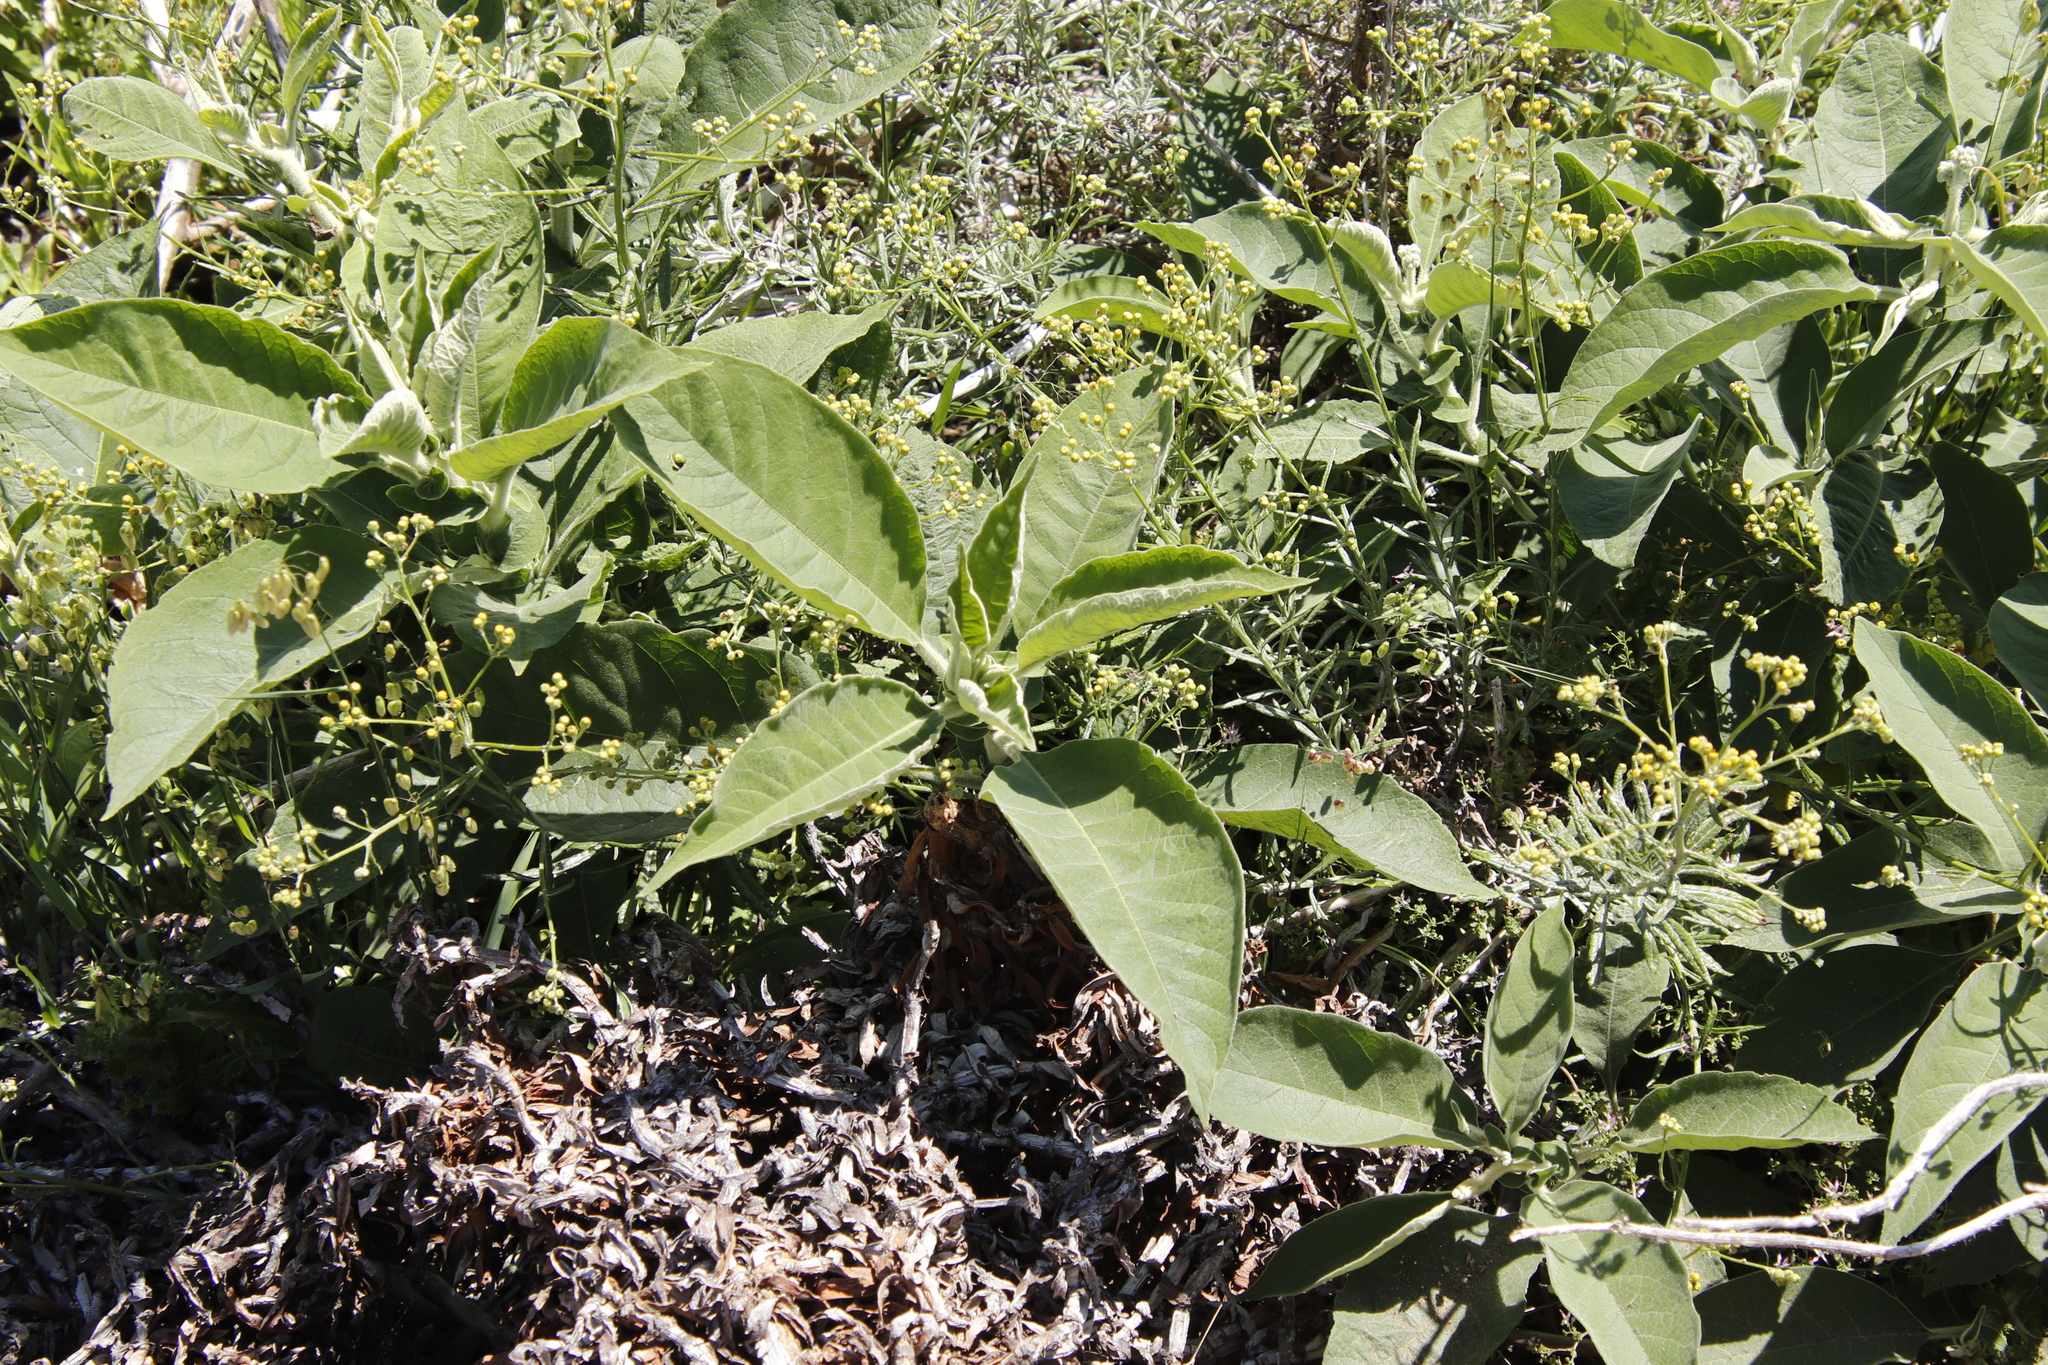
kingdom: Plantae
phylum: Tracheophyta
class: Magnoliopsida
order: Solanales
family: Solanaceae
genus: Solanum
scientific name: Solanum mauritianum
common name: Earleaf nightshade
